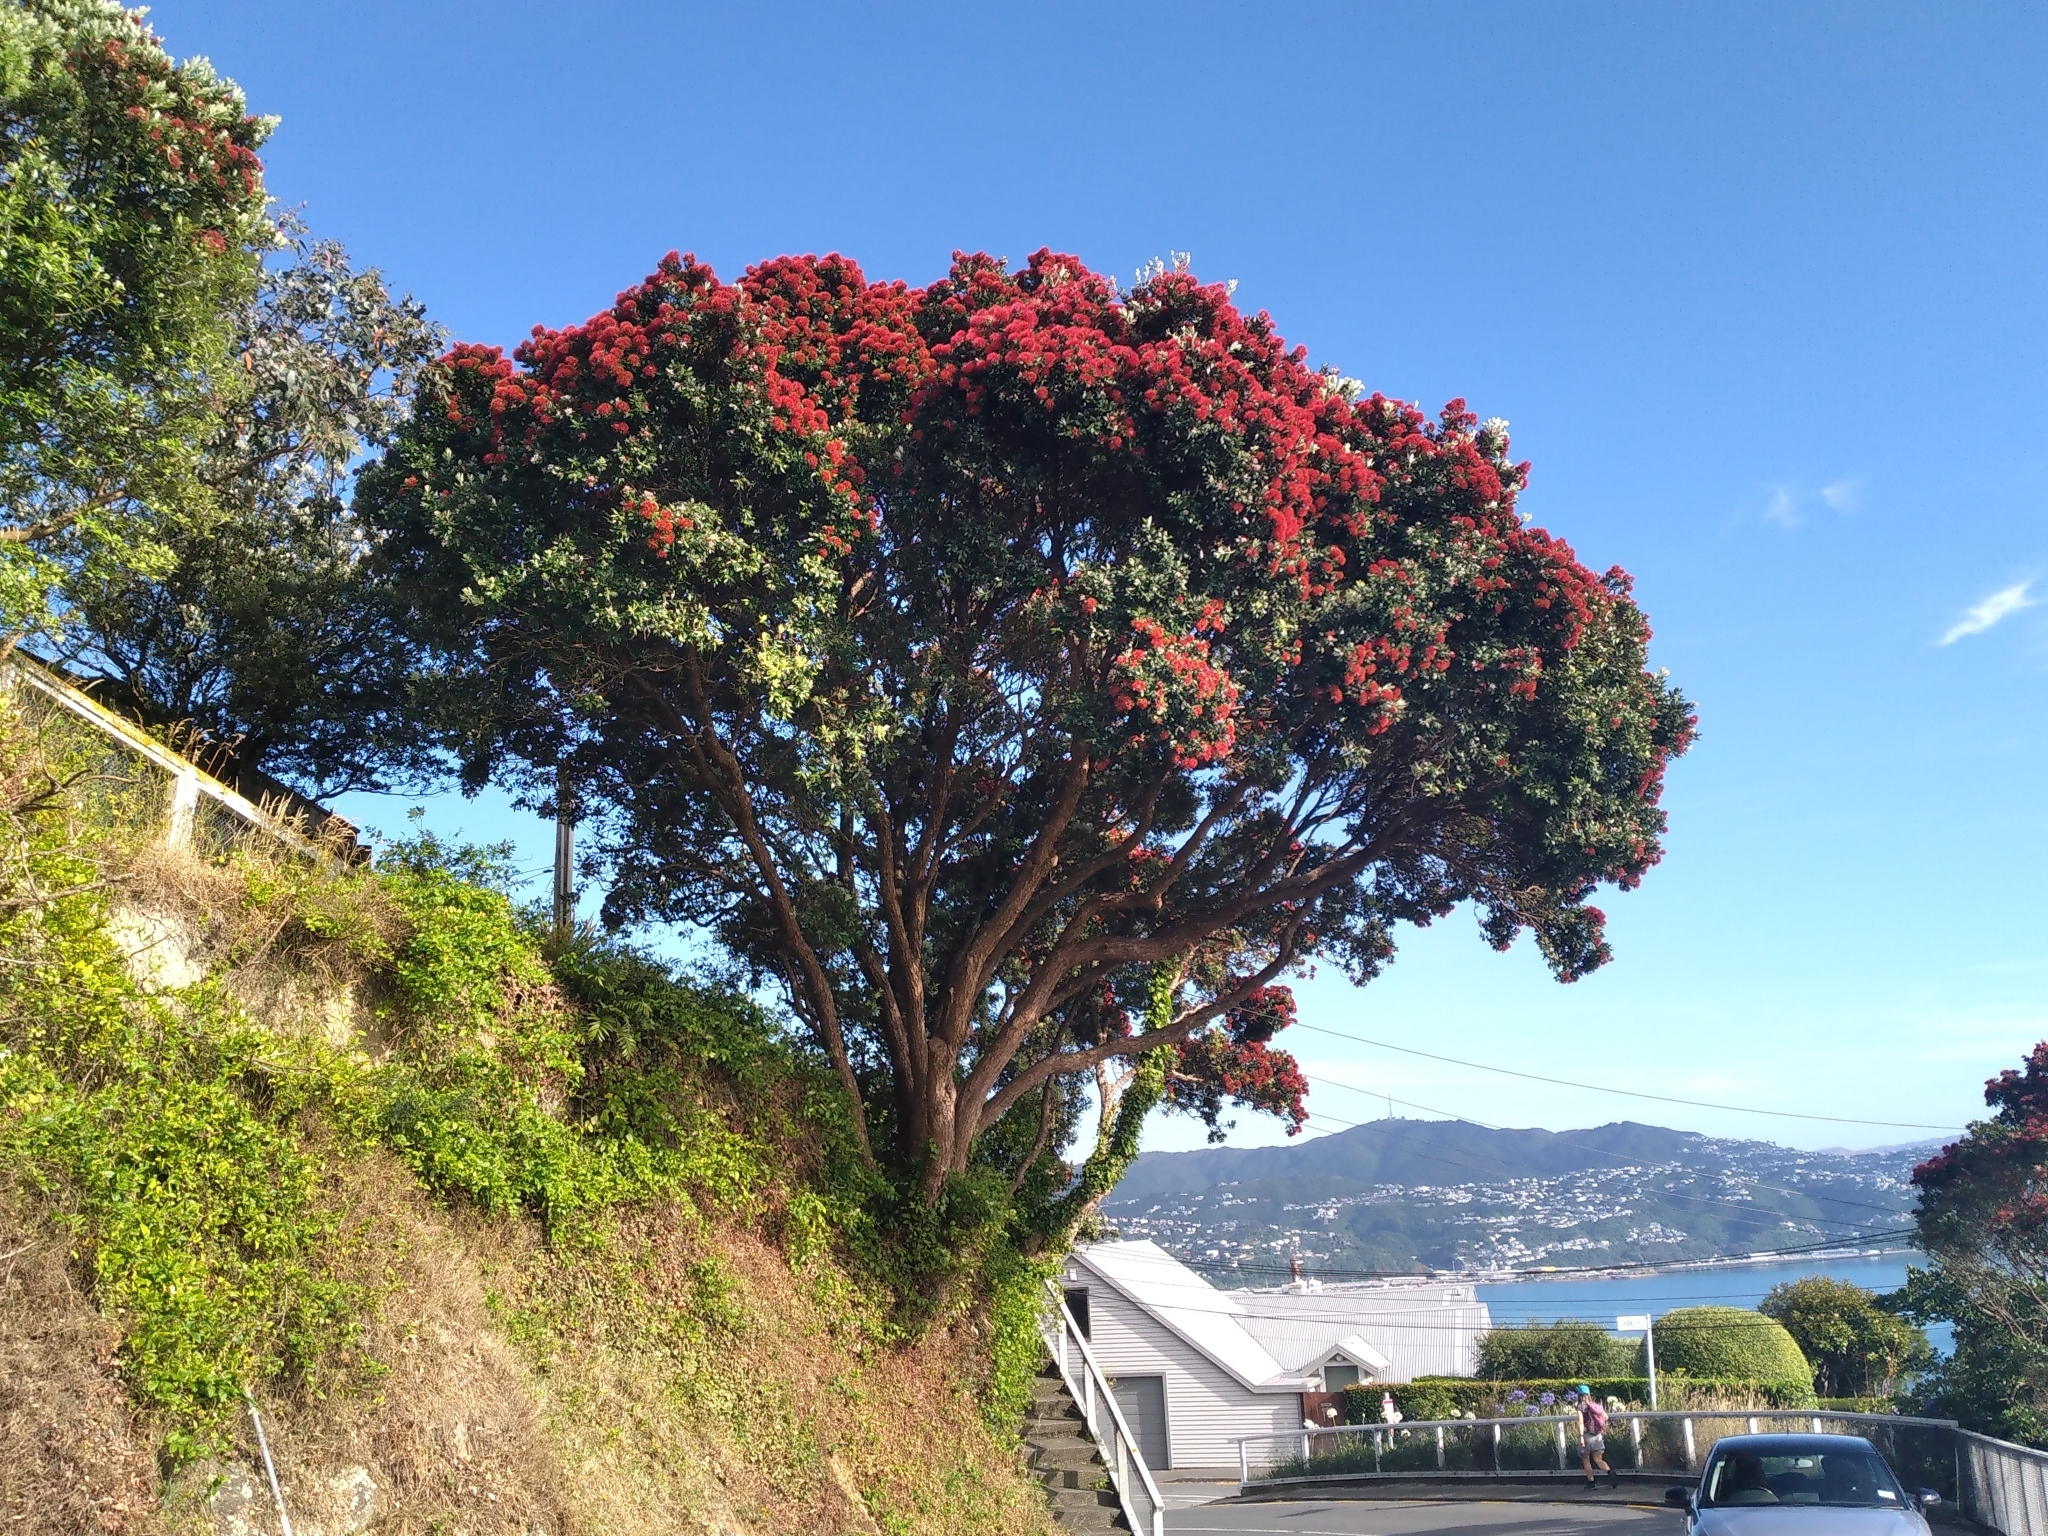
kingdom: Plantae
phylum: Tracheophyta
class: Magnoliopsida
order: Myrtales
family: Myrtaceae
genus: Metrosideros
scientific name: Metrosideros excelsa
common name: New zealand christmastree
